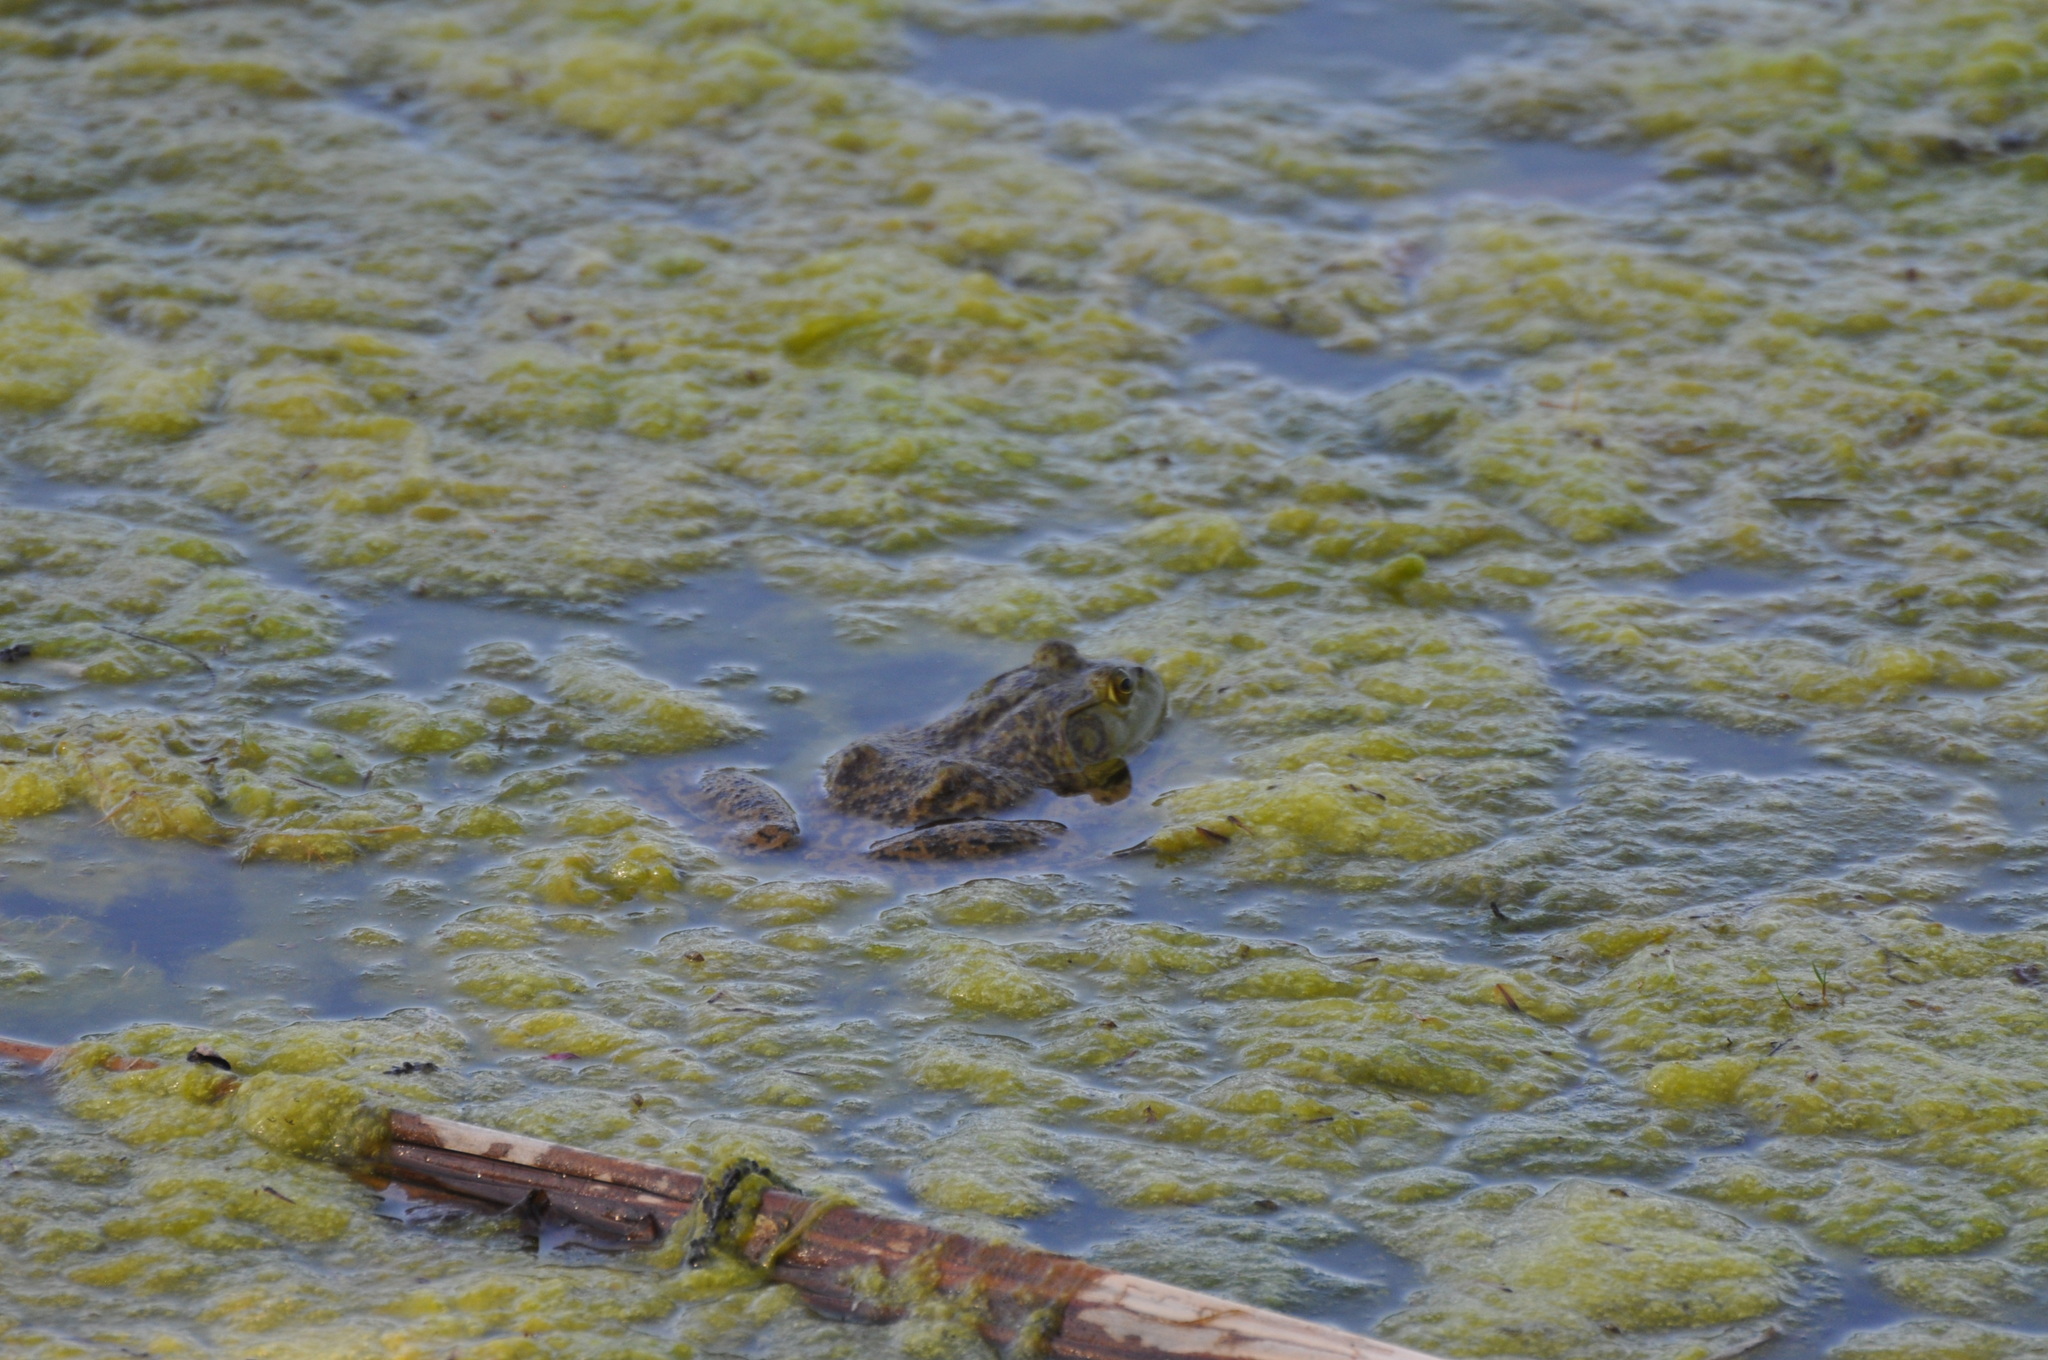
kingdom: Animalia
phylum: Chordata
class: Amphibia
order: Anura
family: Ranidae
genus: Lithobates
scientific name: Lithobates catesbeianus
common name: American bullfrog
